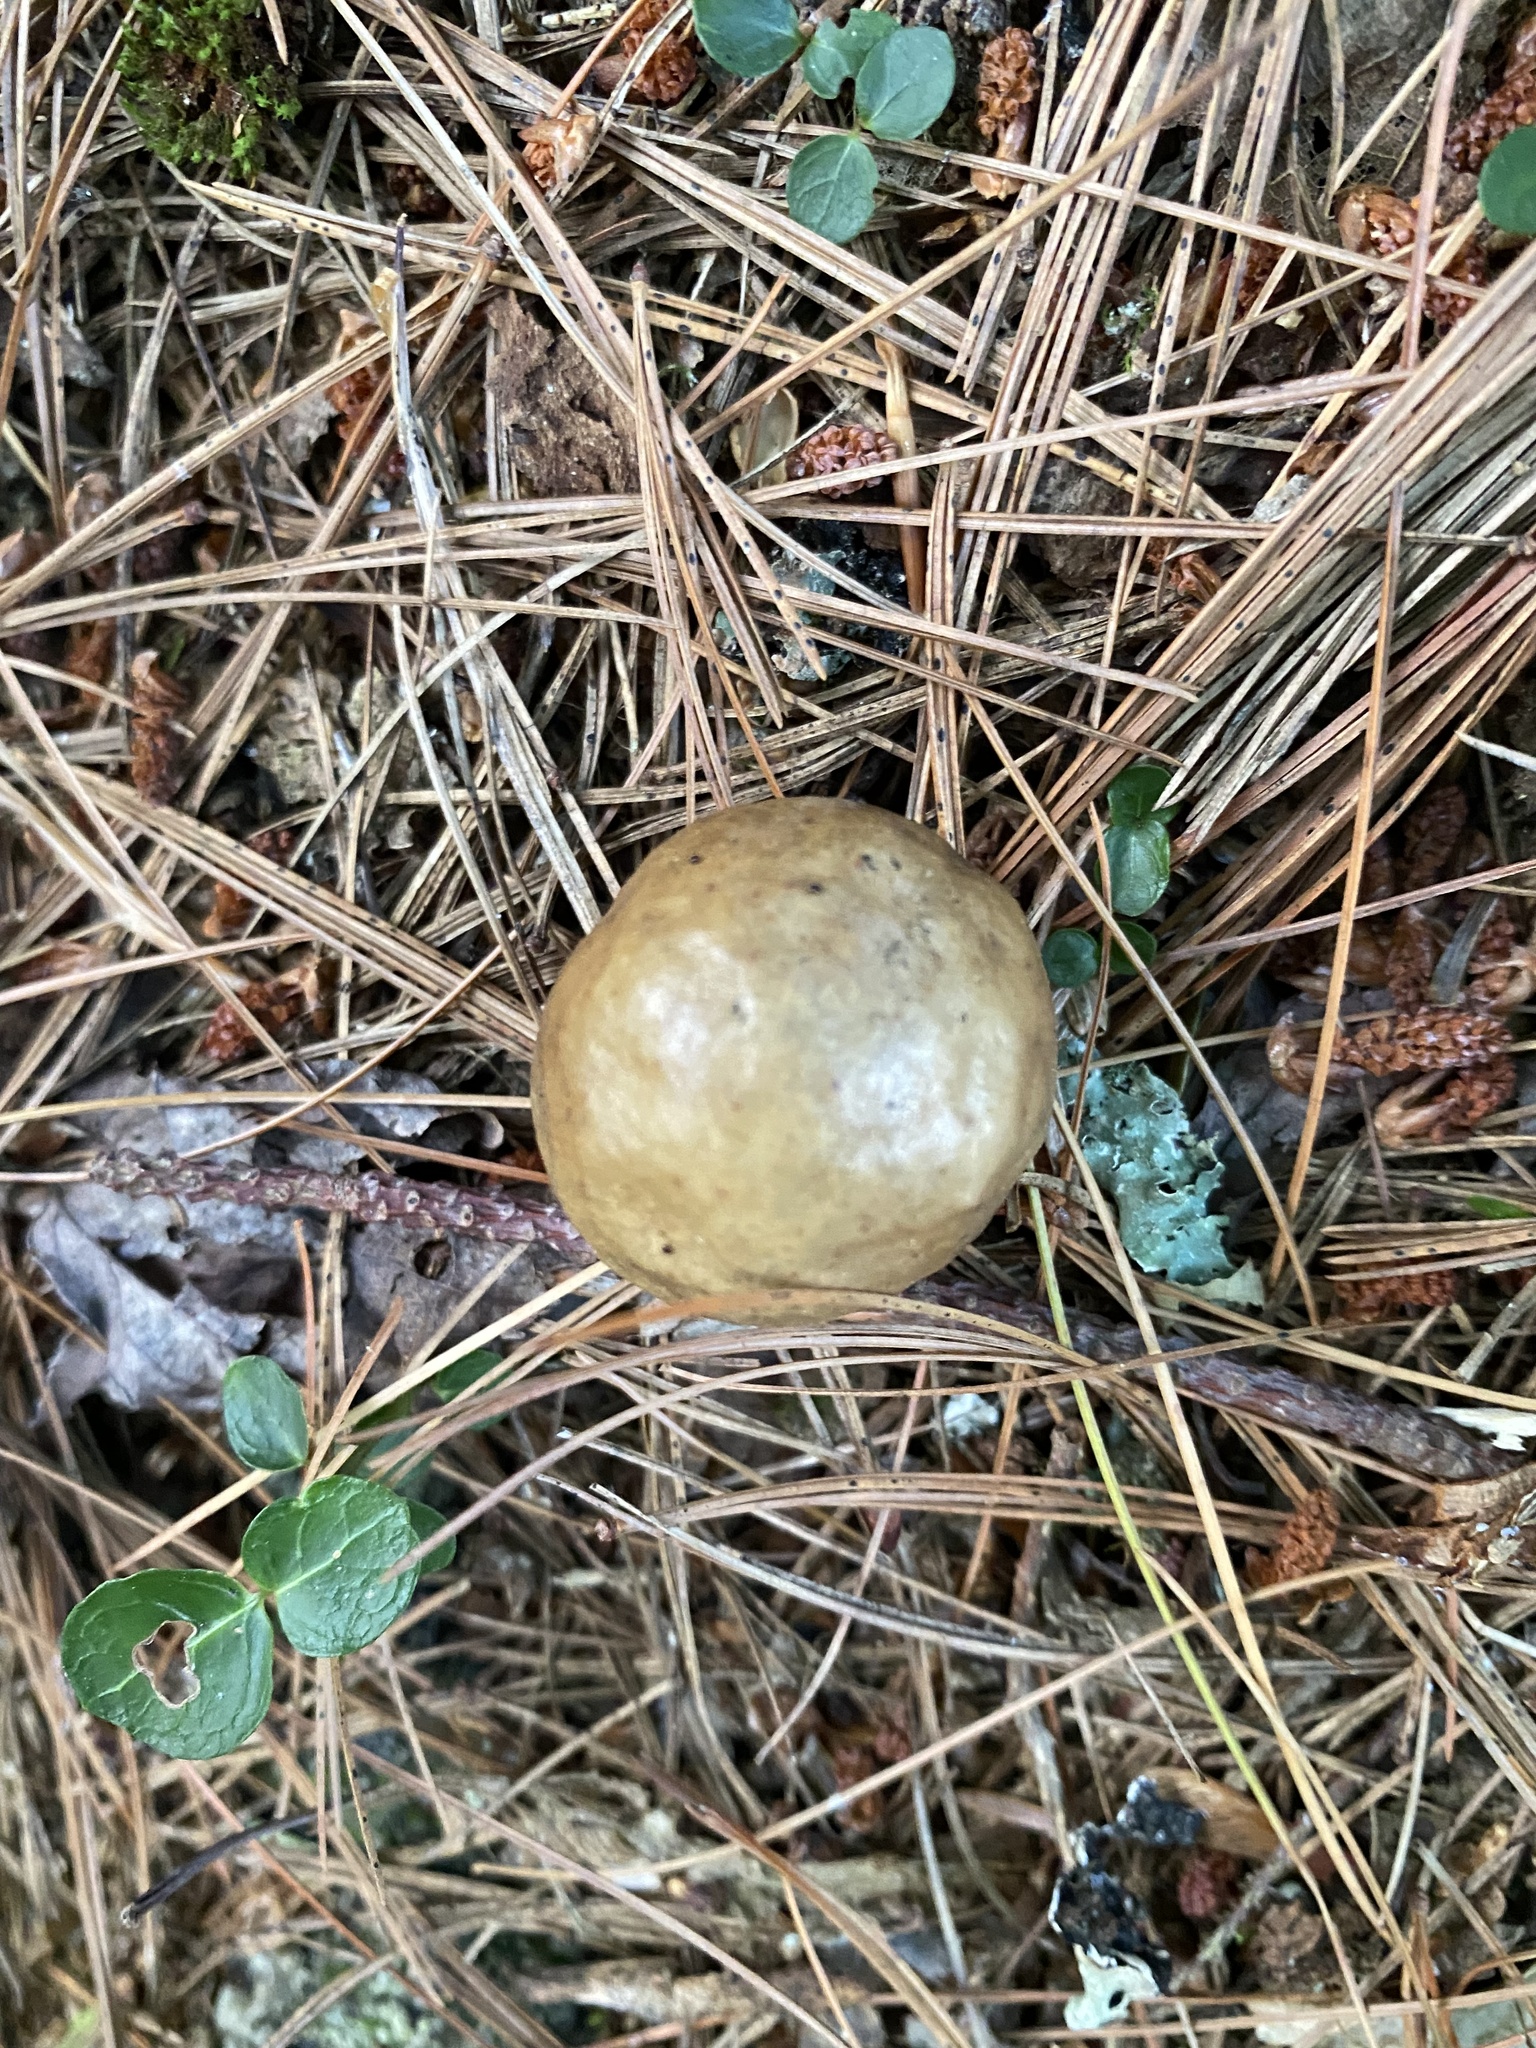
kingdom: Animalia
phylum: Arthropoda
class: Insecta
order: Hymenoptera
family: Cynipidae
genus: Amphibolips
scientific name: Amphibolips
